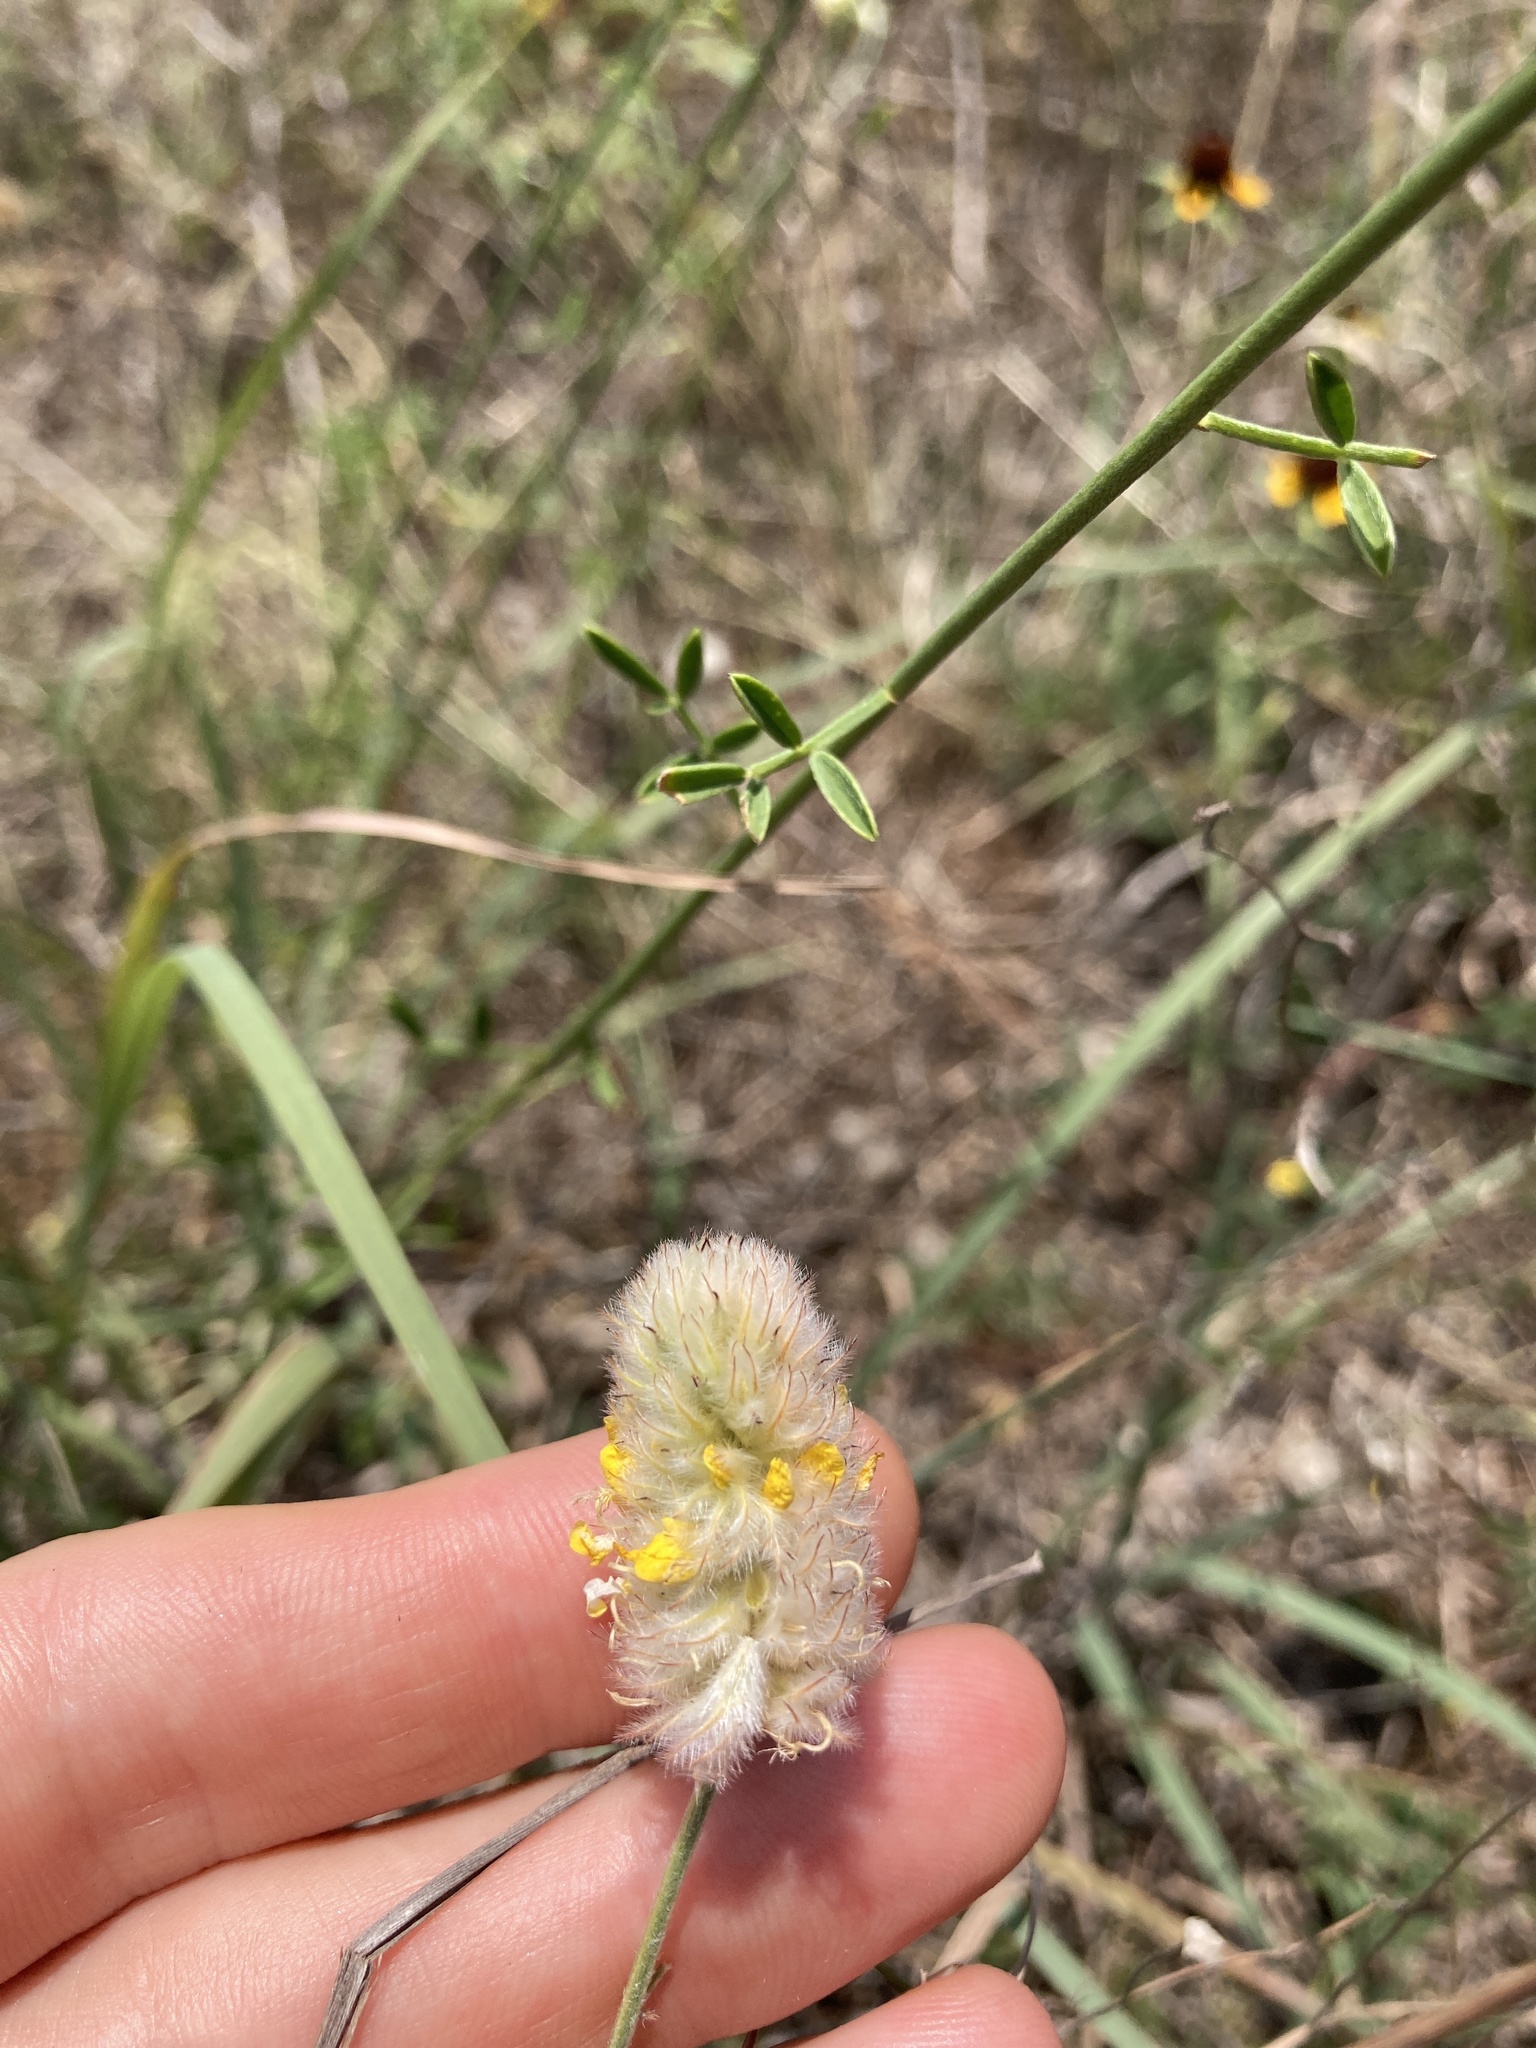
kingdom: Plantae
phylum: Tracheophyta
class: Magnoliopsida
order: Fabales
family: Fabaceae
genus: Dalea
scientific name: Dalea aurea
